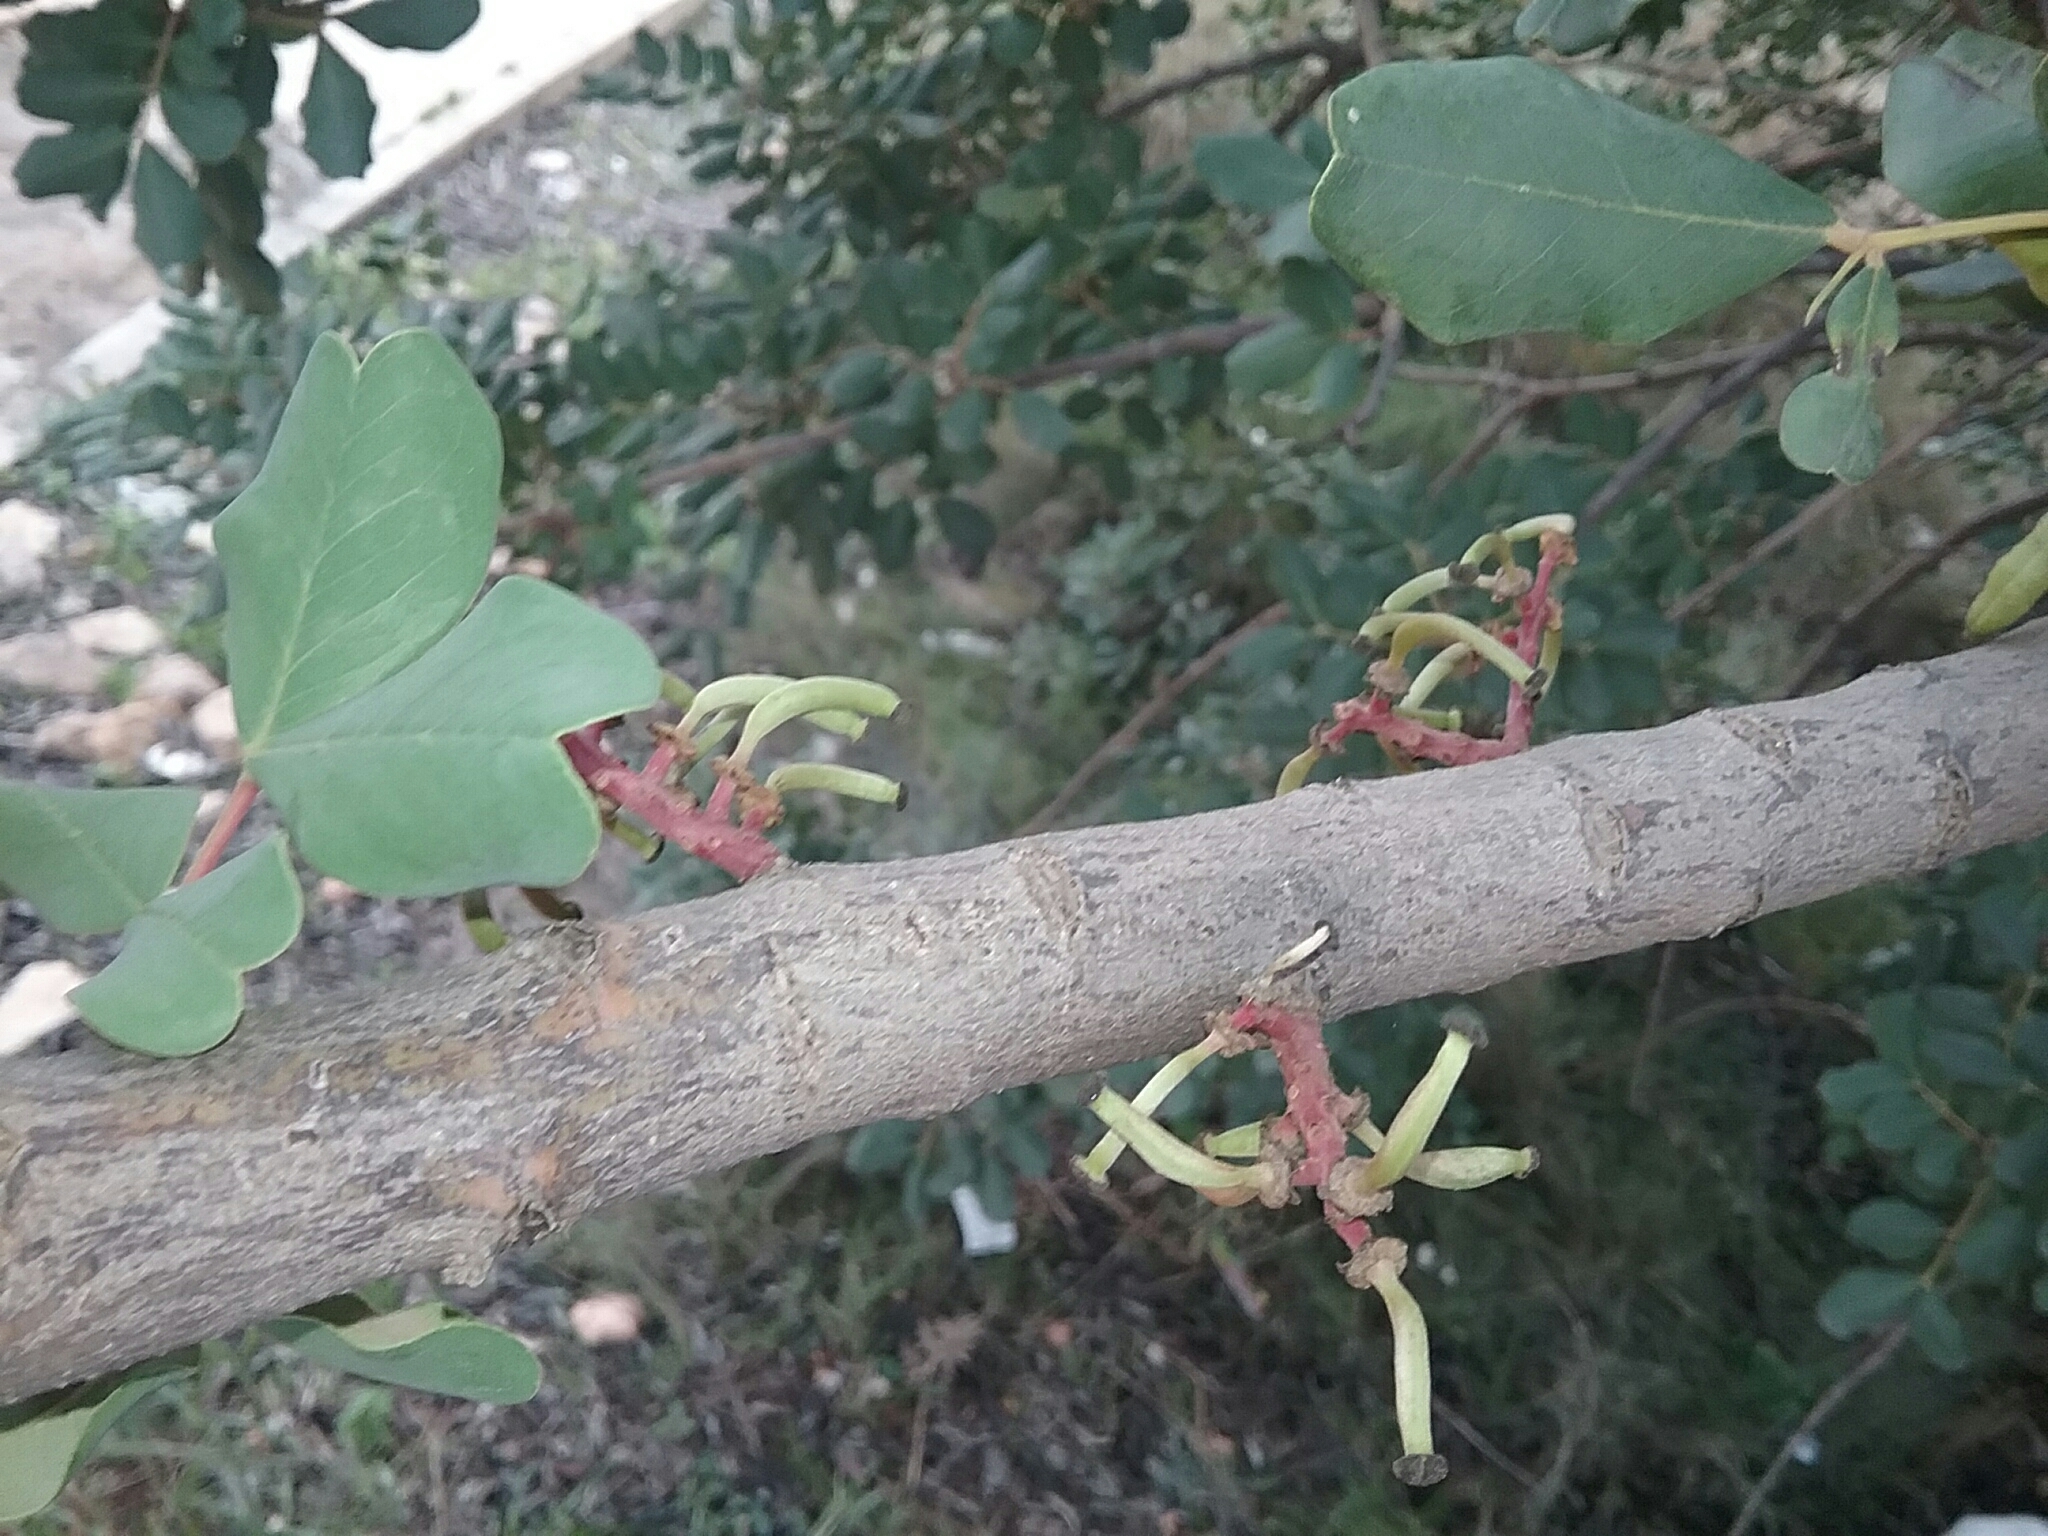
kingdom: Plantae
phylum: Tracheophyta
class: Magnoliopsida
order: Fabales
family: Fabaceae
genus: Ceratonia
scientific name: Ceratonia siliqua
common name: Carob
